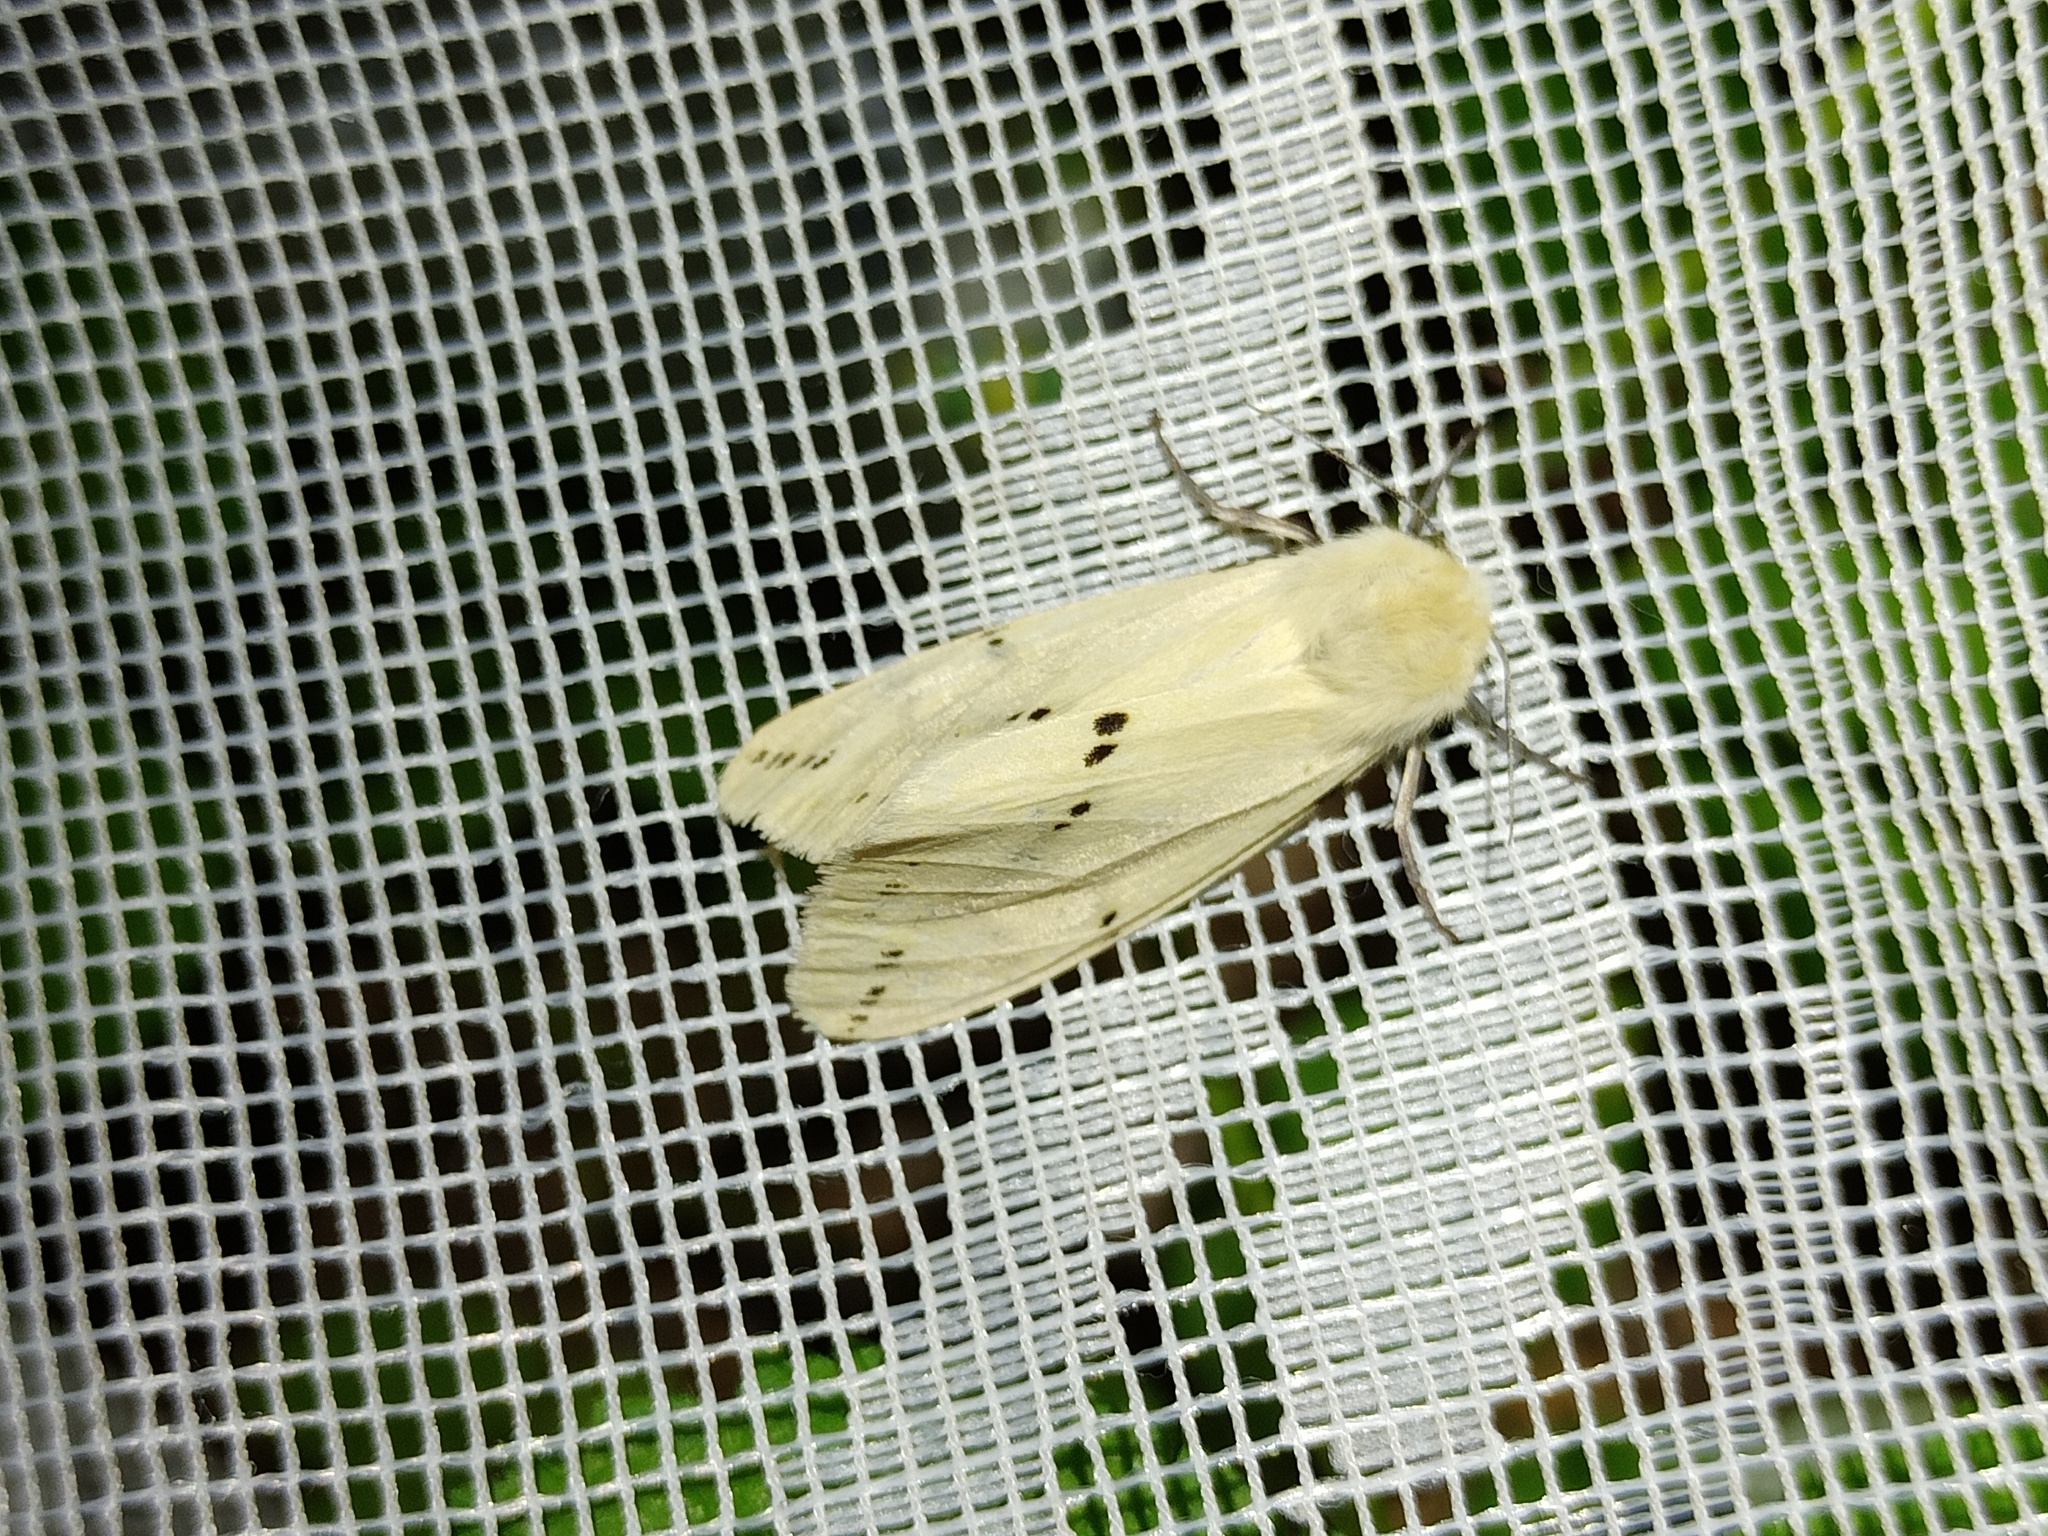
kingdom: Animalia
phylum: Arthropoda
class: Insecta
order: Lepidoptera
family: Erebidae
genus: Spilarctia
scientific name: Spilarctia lutea
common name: Buff ermine
